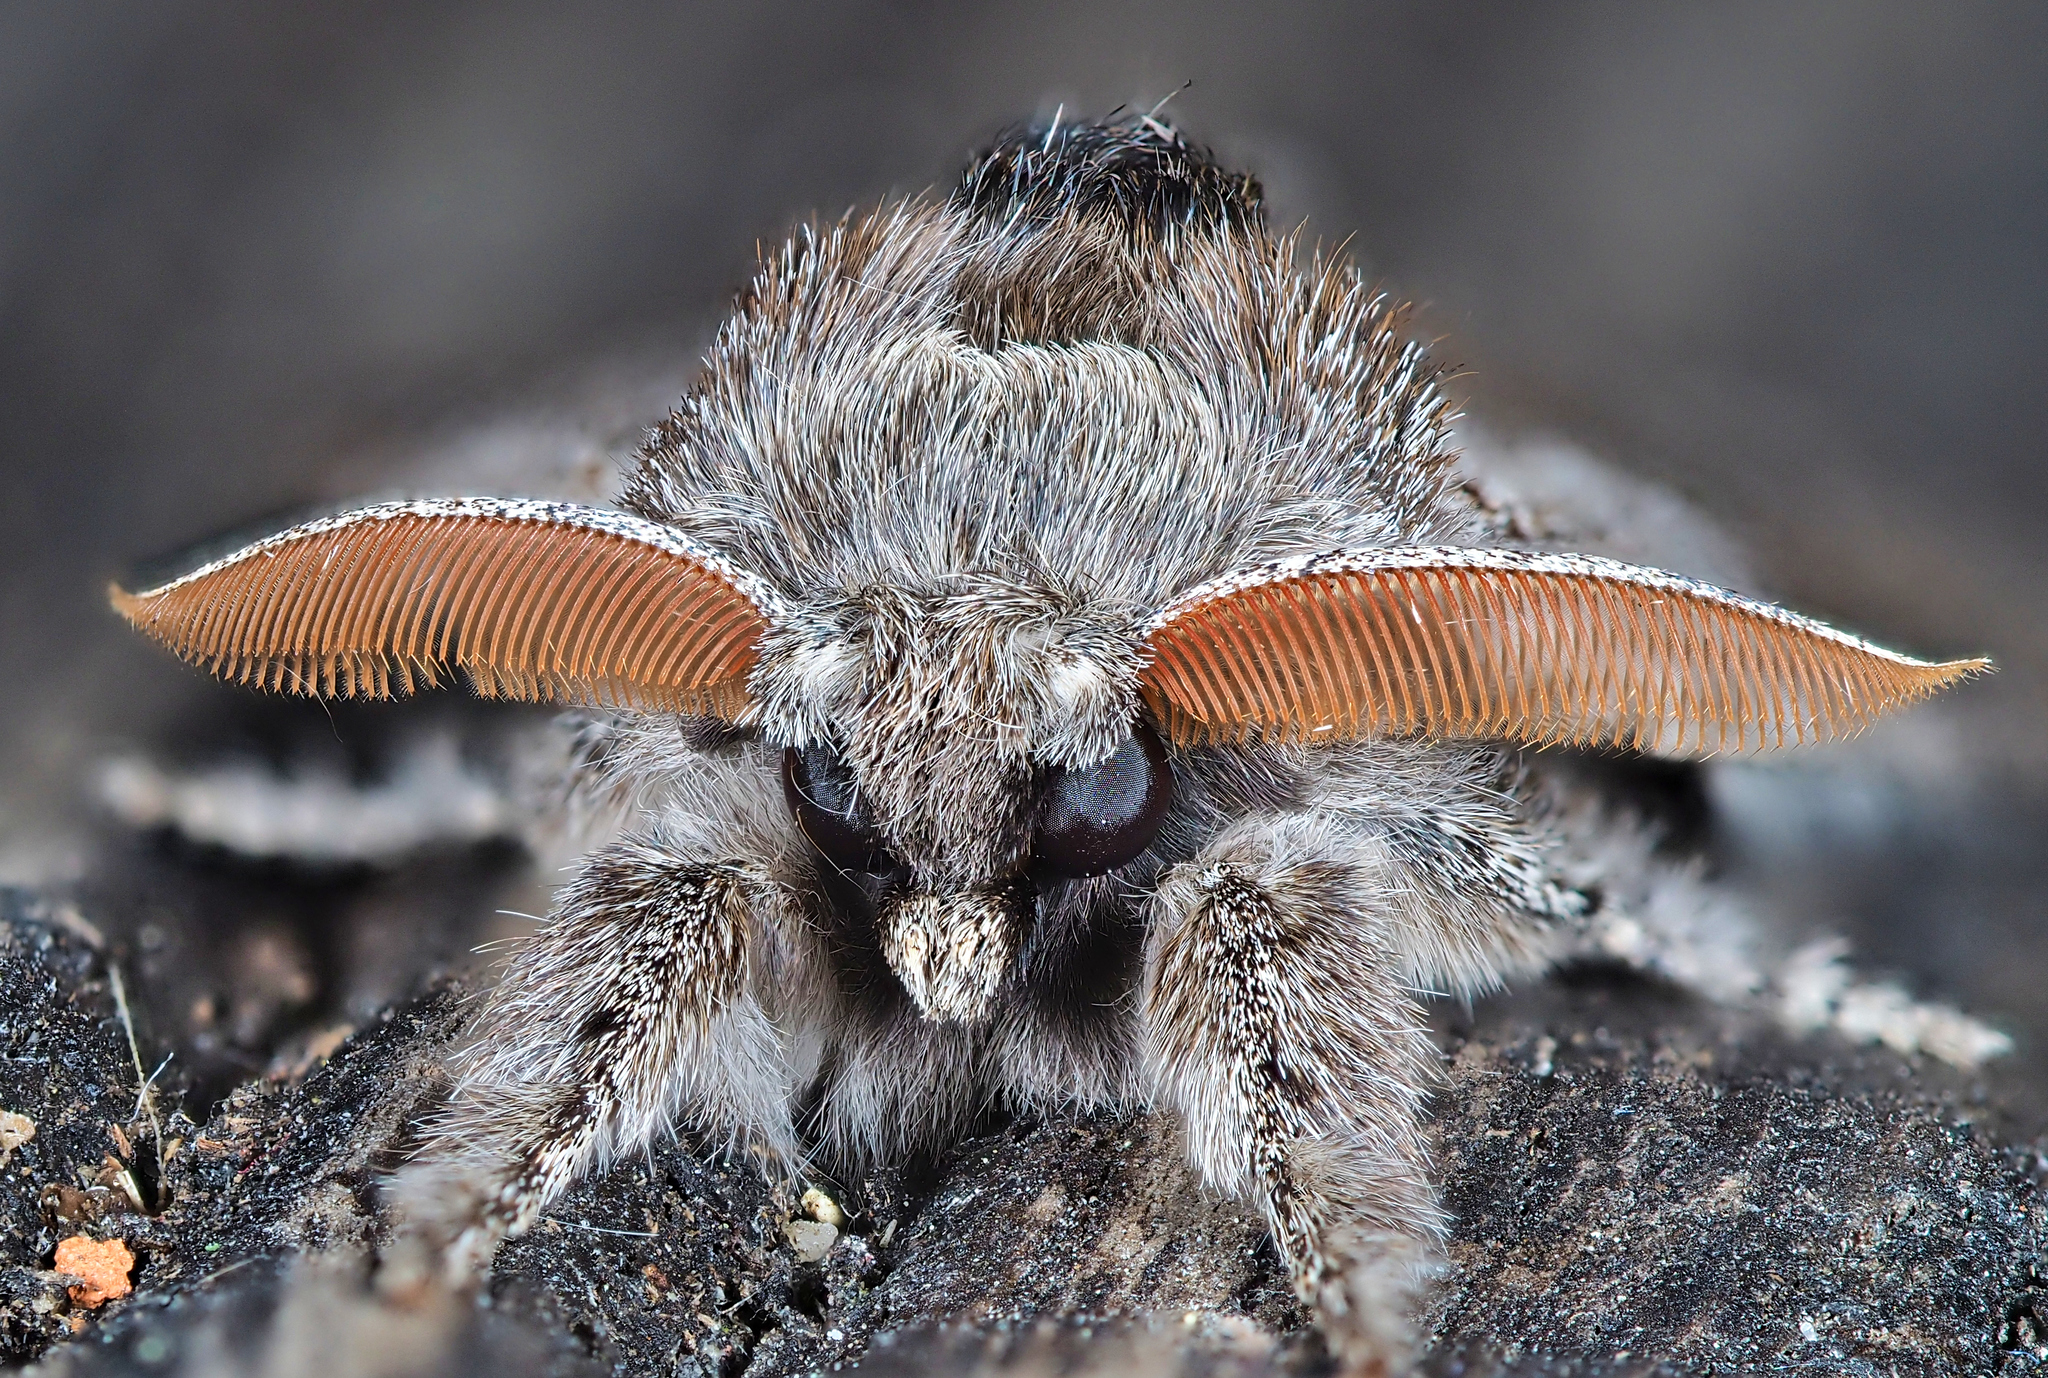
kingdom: Animalia
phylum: Arthropoda
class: Insecta
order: Lepidoptera
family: Erebidae
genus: Calliteara
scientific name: Calliteara pudibunda
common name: Pale tussock
